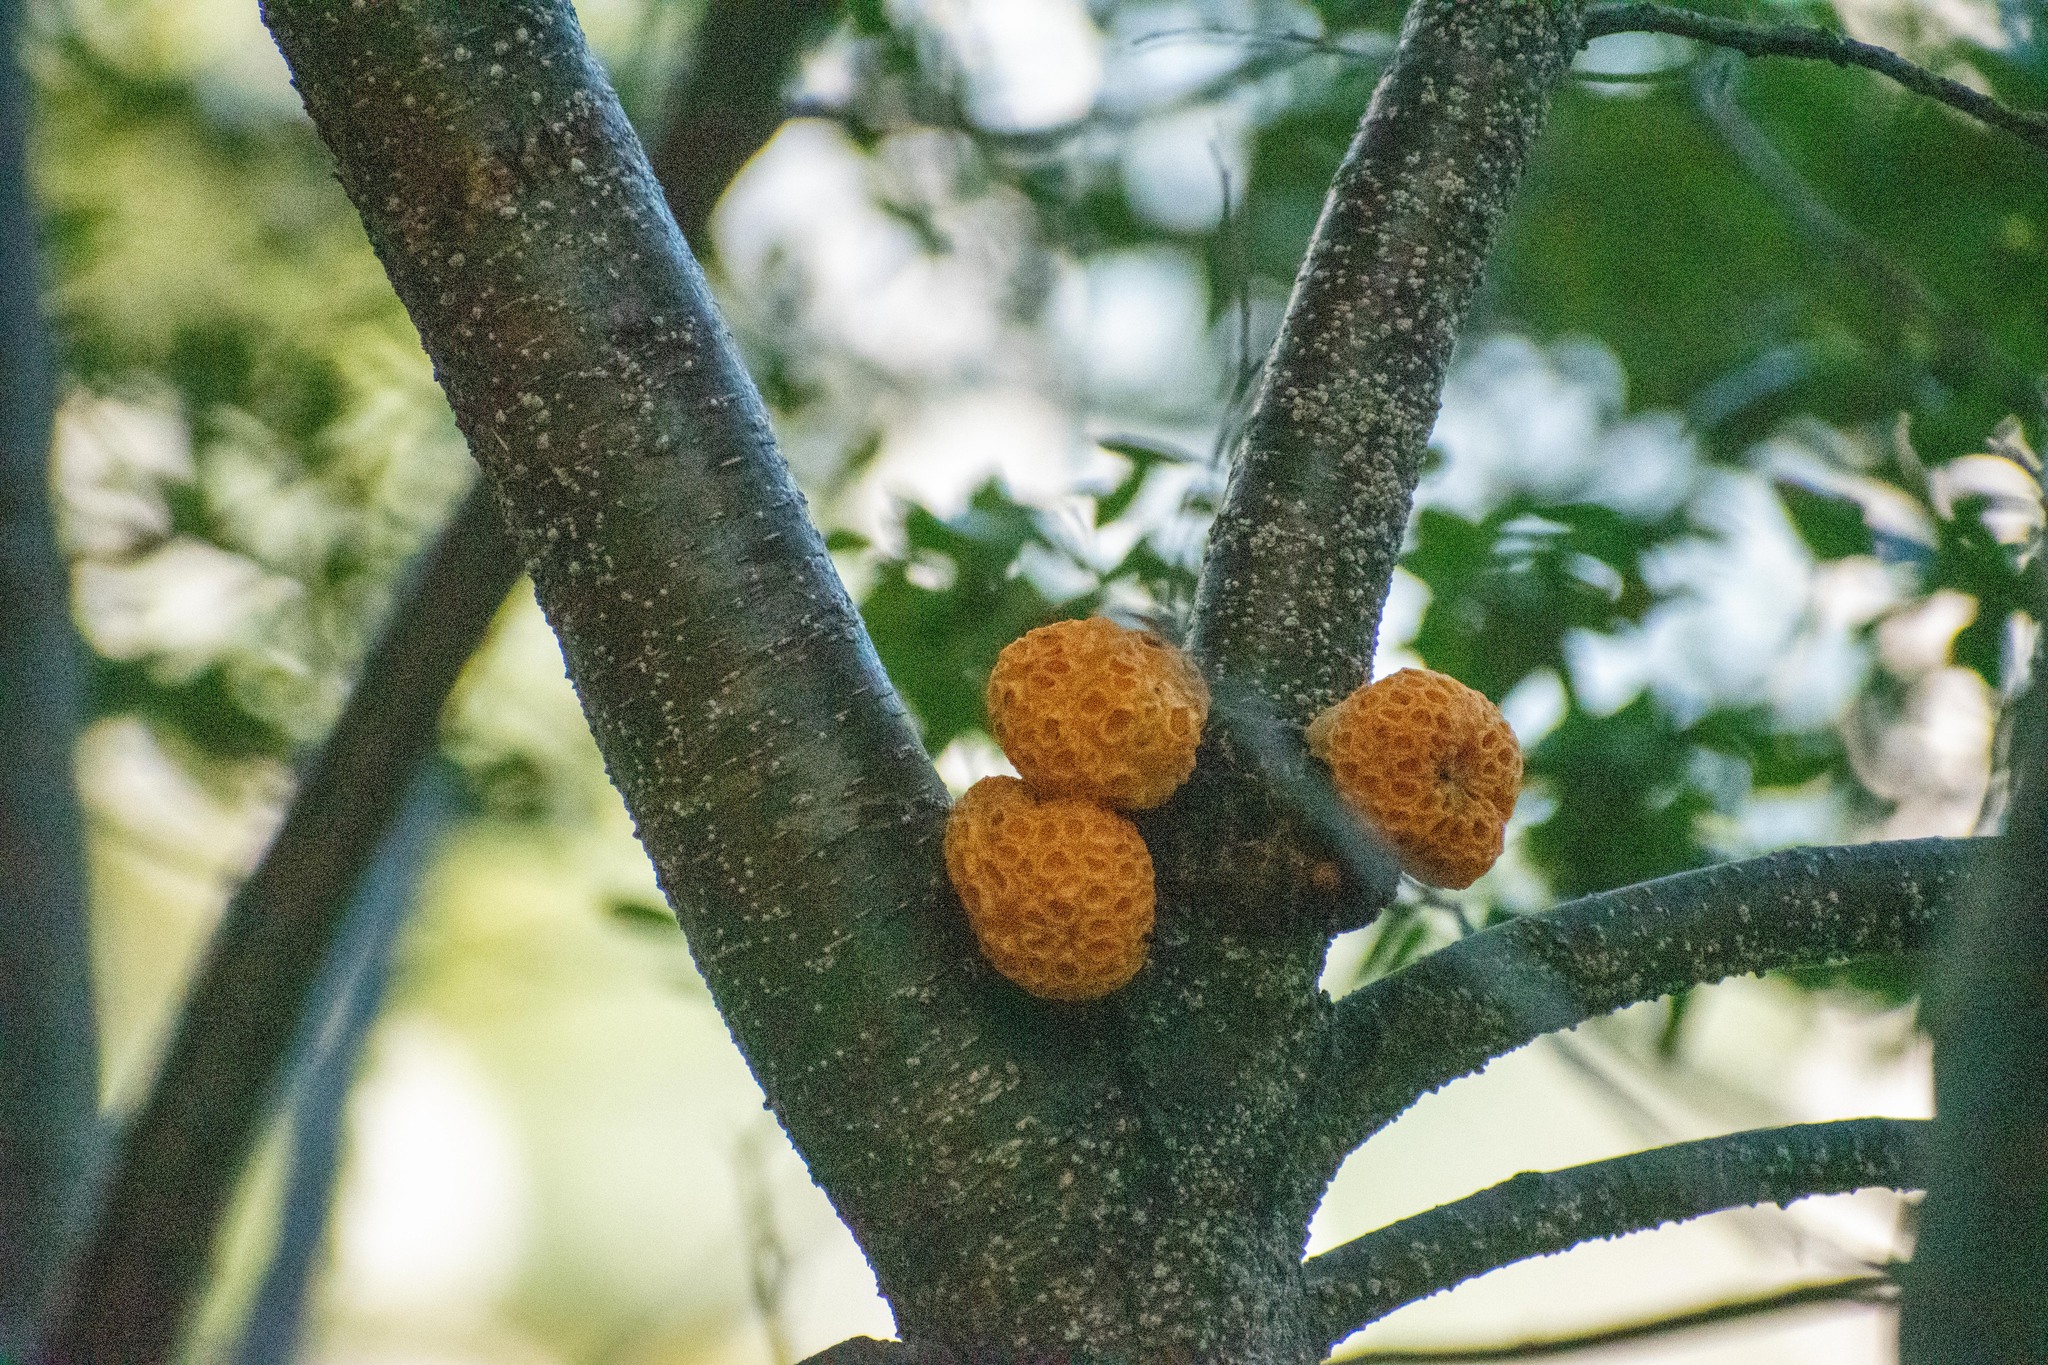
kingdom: Fungi
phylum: Ascomycota
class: Leotiomycetes
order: Cyttariales
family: Cyttariaceae
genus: Cyttaria
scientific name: Cyttaria hariotii
